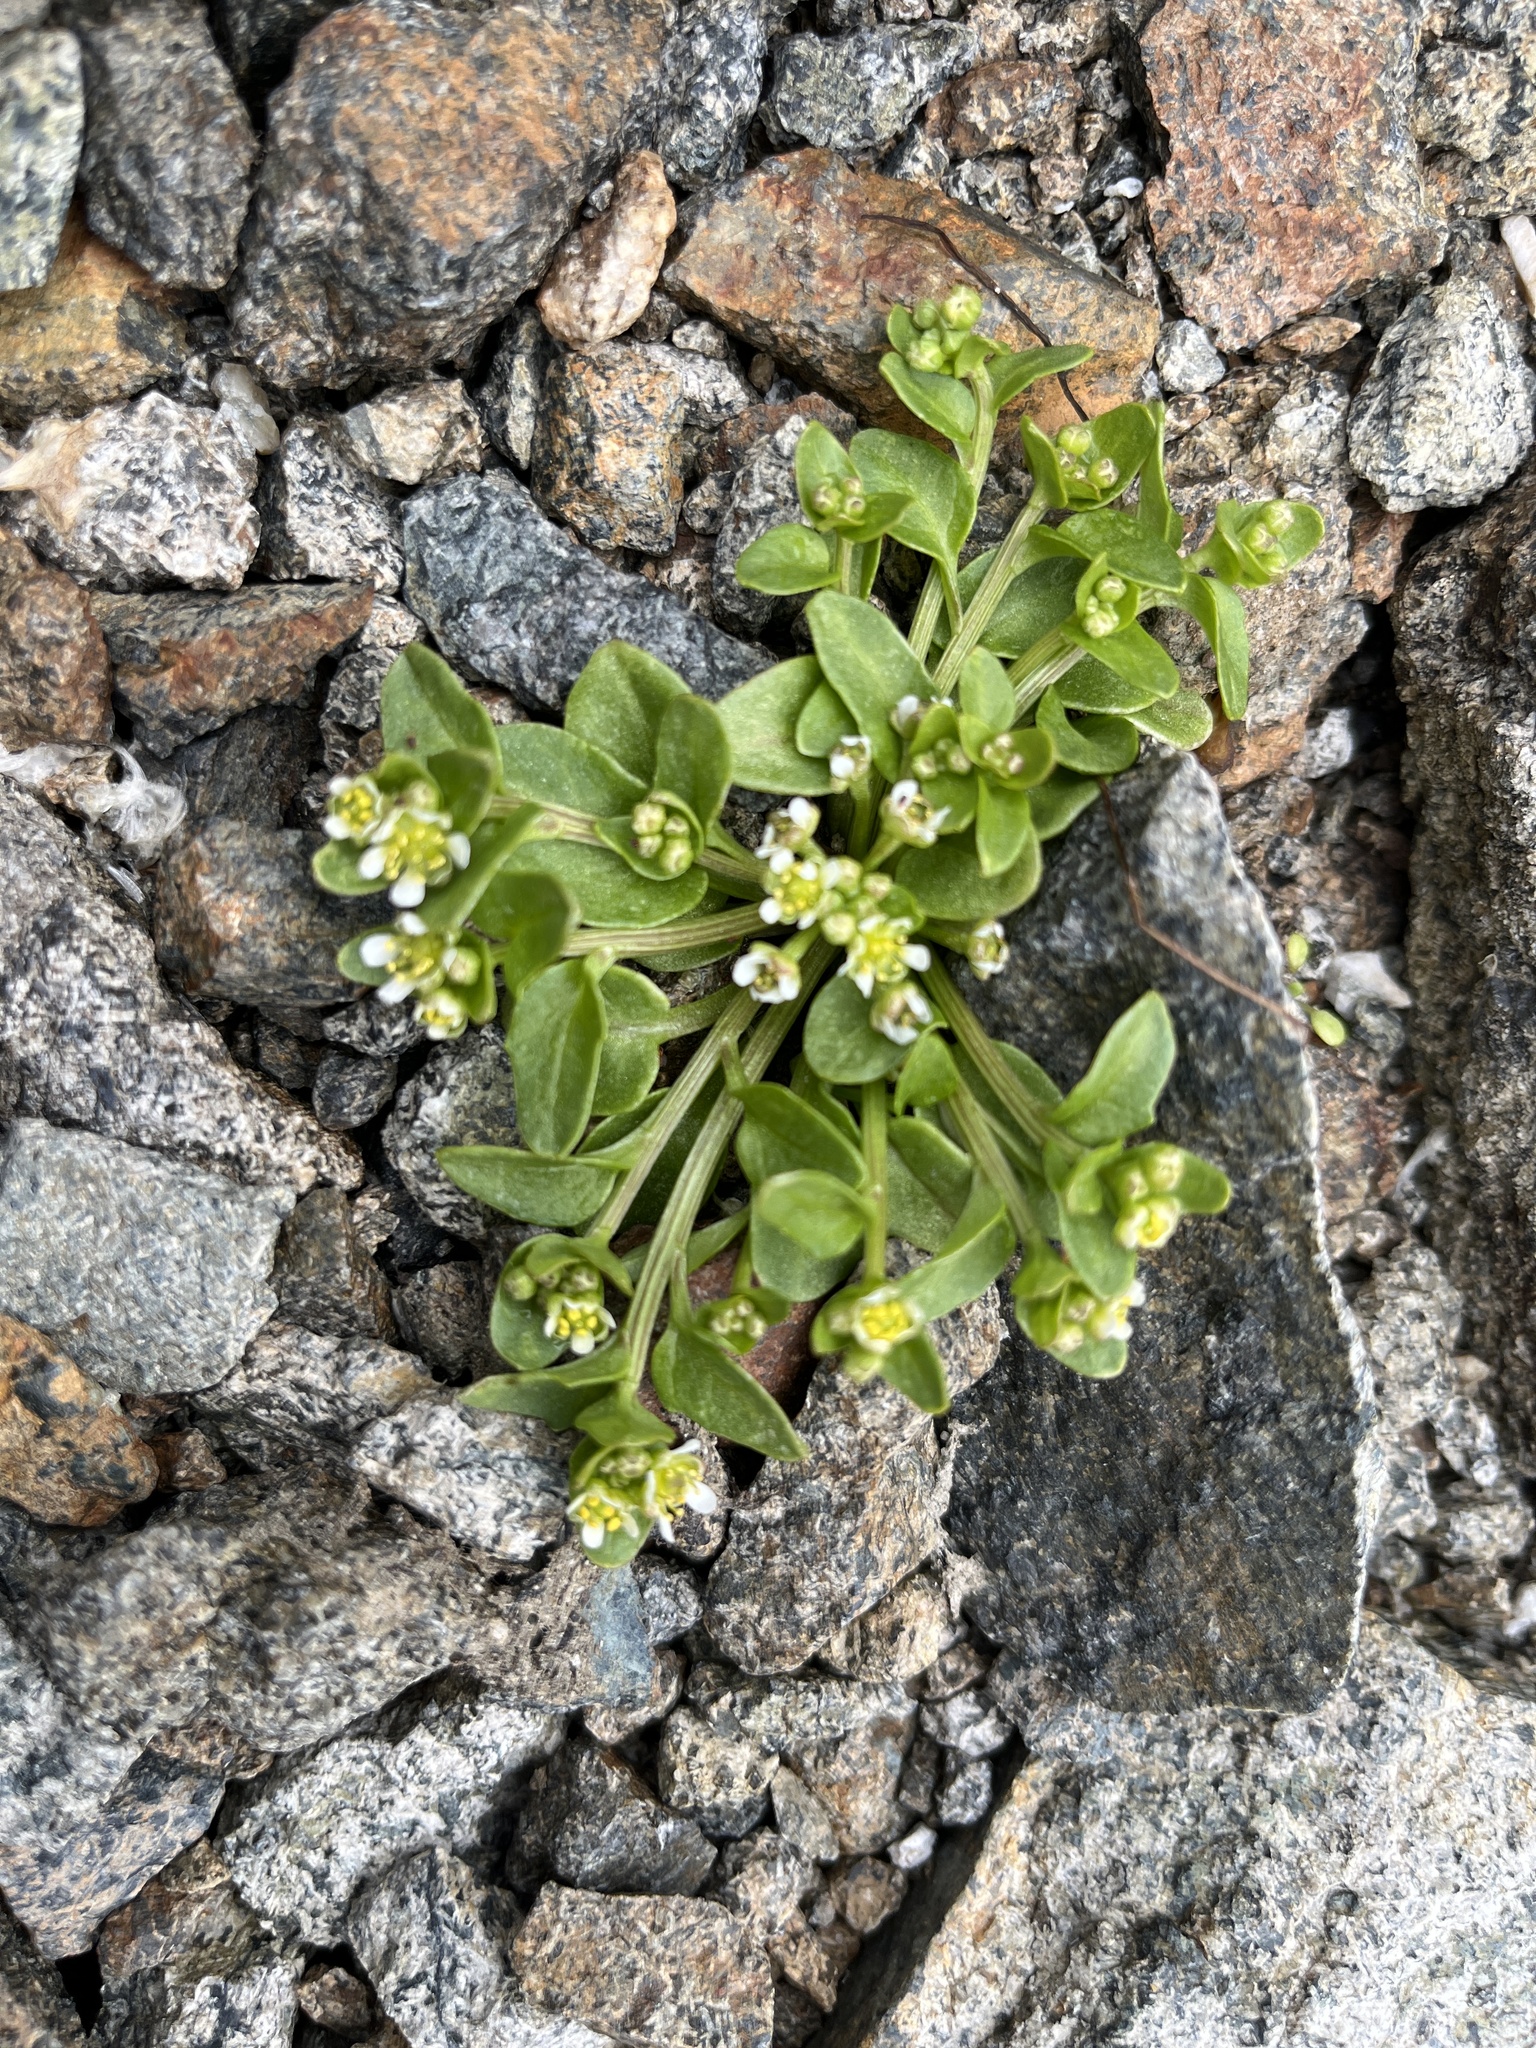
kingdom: Plantae
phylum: Tracheophyta
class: Magnoliopsida
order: Brassicales
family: Brassicaceae
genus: Cochlearia
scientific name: Cochlearia groenlandica
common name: Danish scurvygrass
